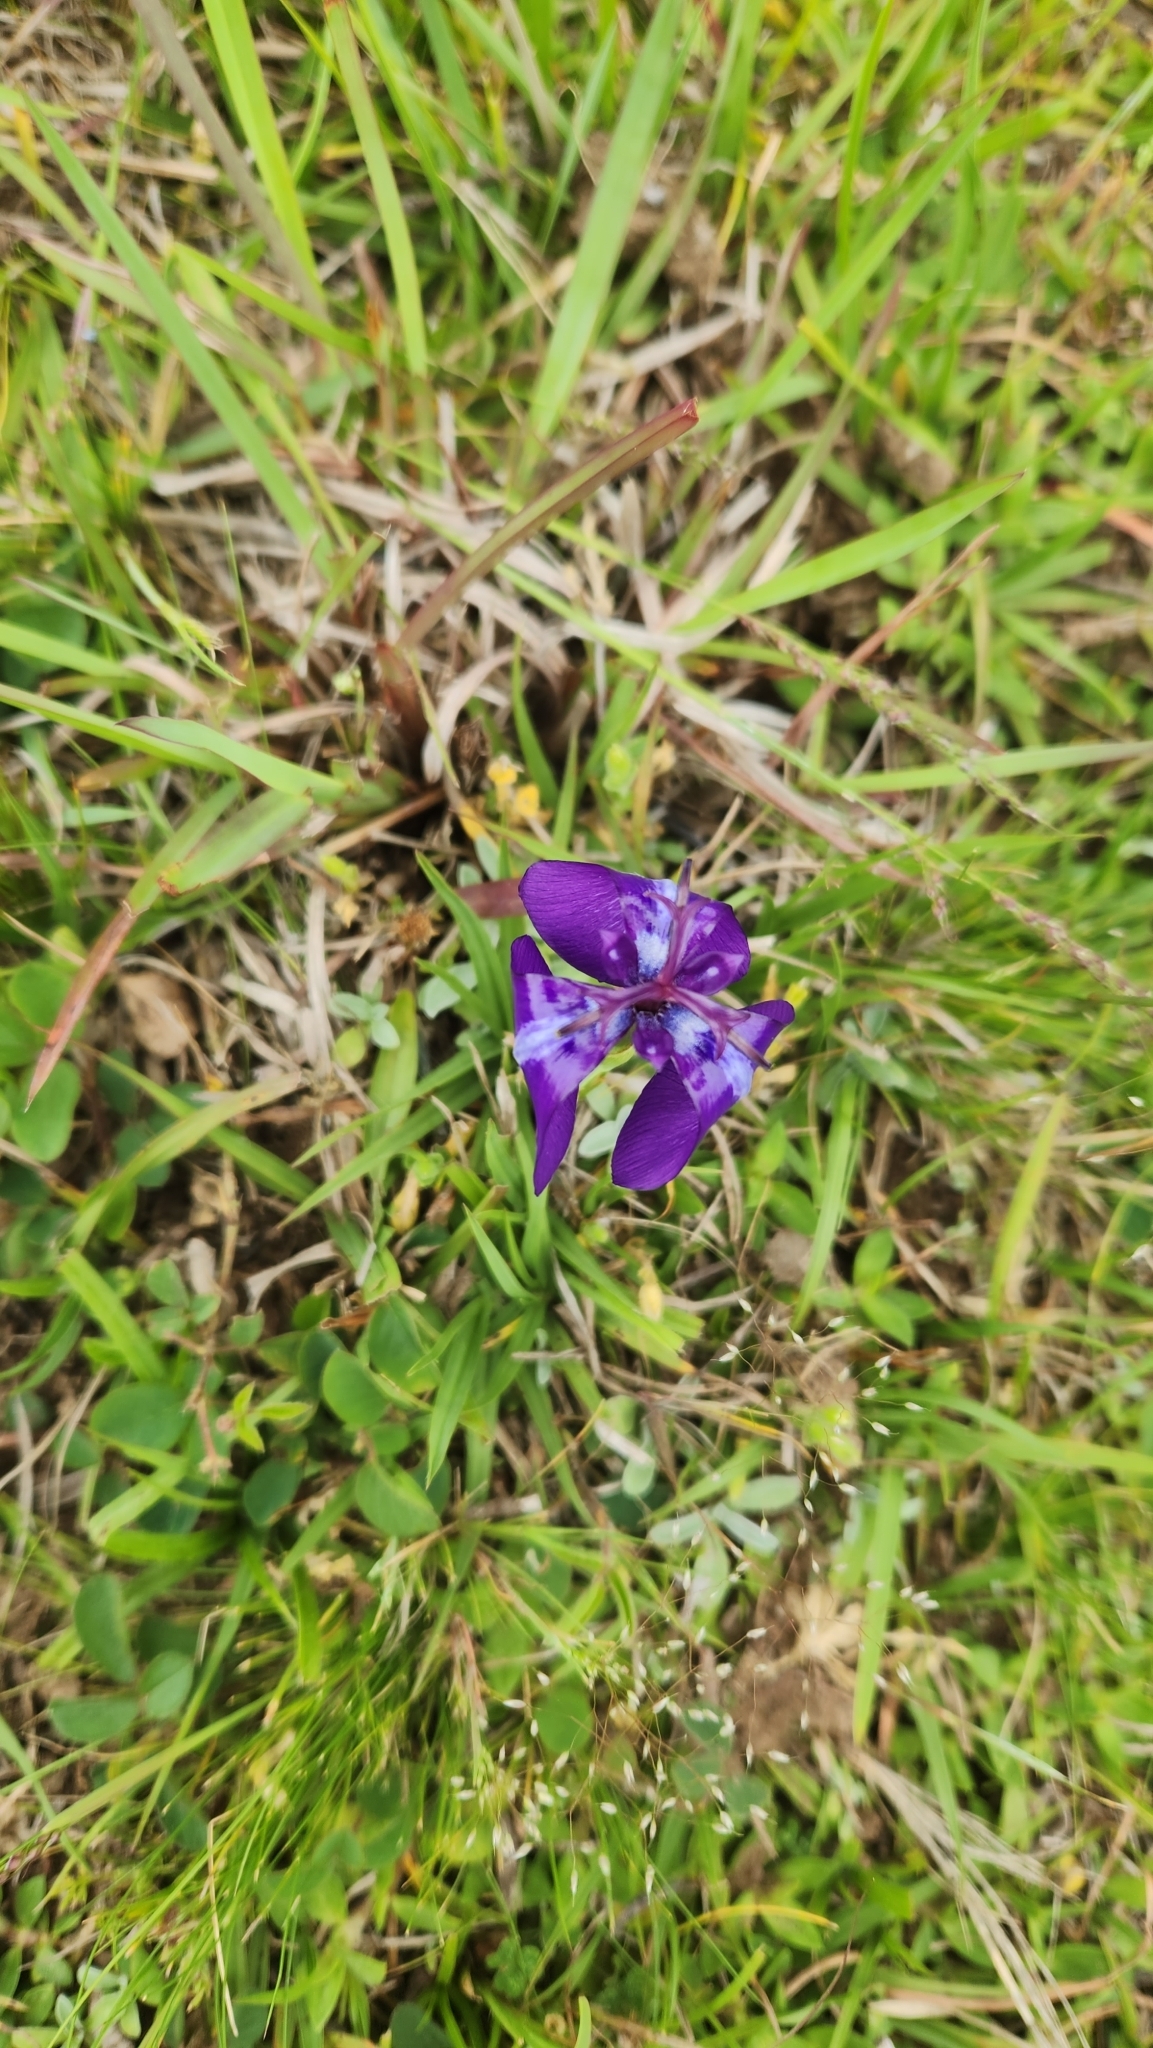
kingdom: Plantae
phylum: Tracheophyta
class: Liliopsida
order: Asparagales
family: Iridaceae
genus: Herbertia
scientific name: Herbertia pulchella
